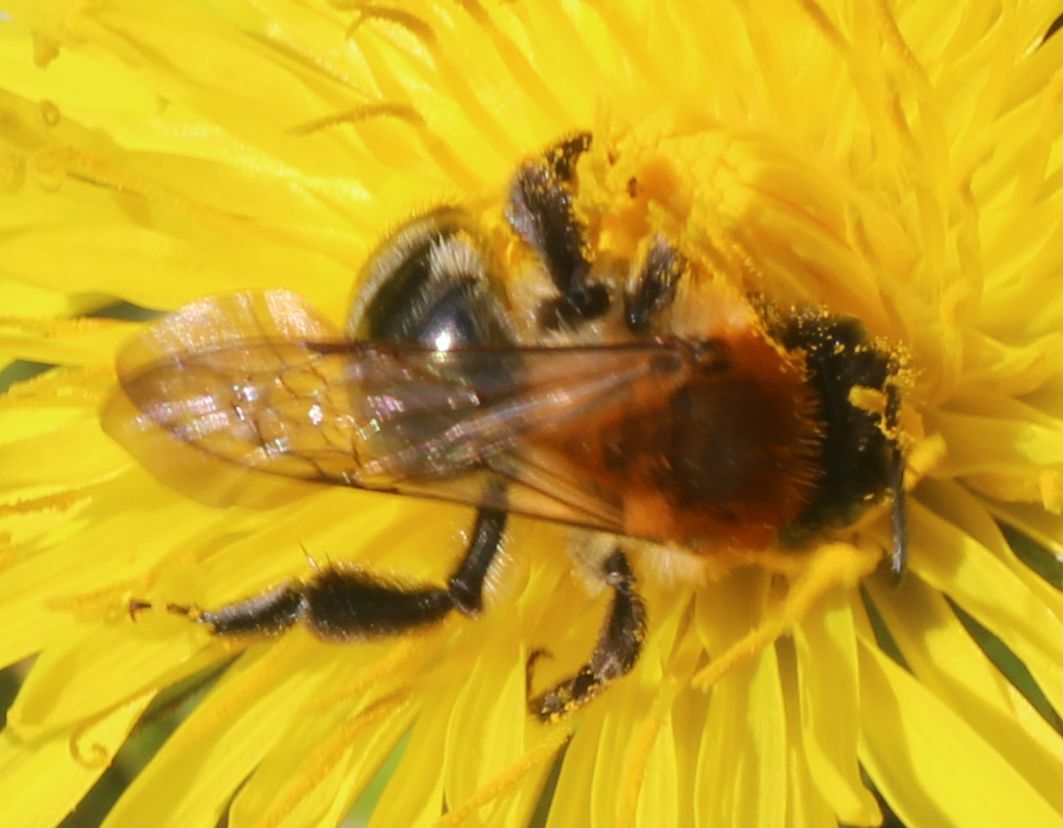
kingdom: Animalia
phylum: Arthropoda
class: Insecta
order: Hymenoptera
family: Andrenidae
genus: Andrena
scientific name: Andrena nitida
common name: Grey-patched mining bee
